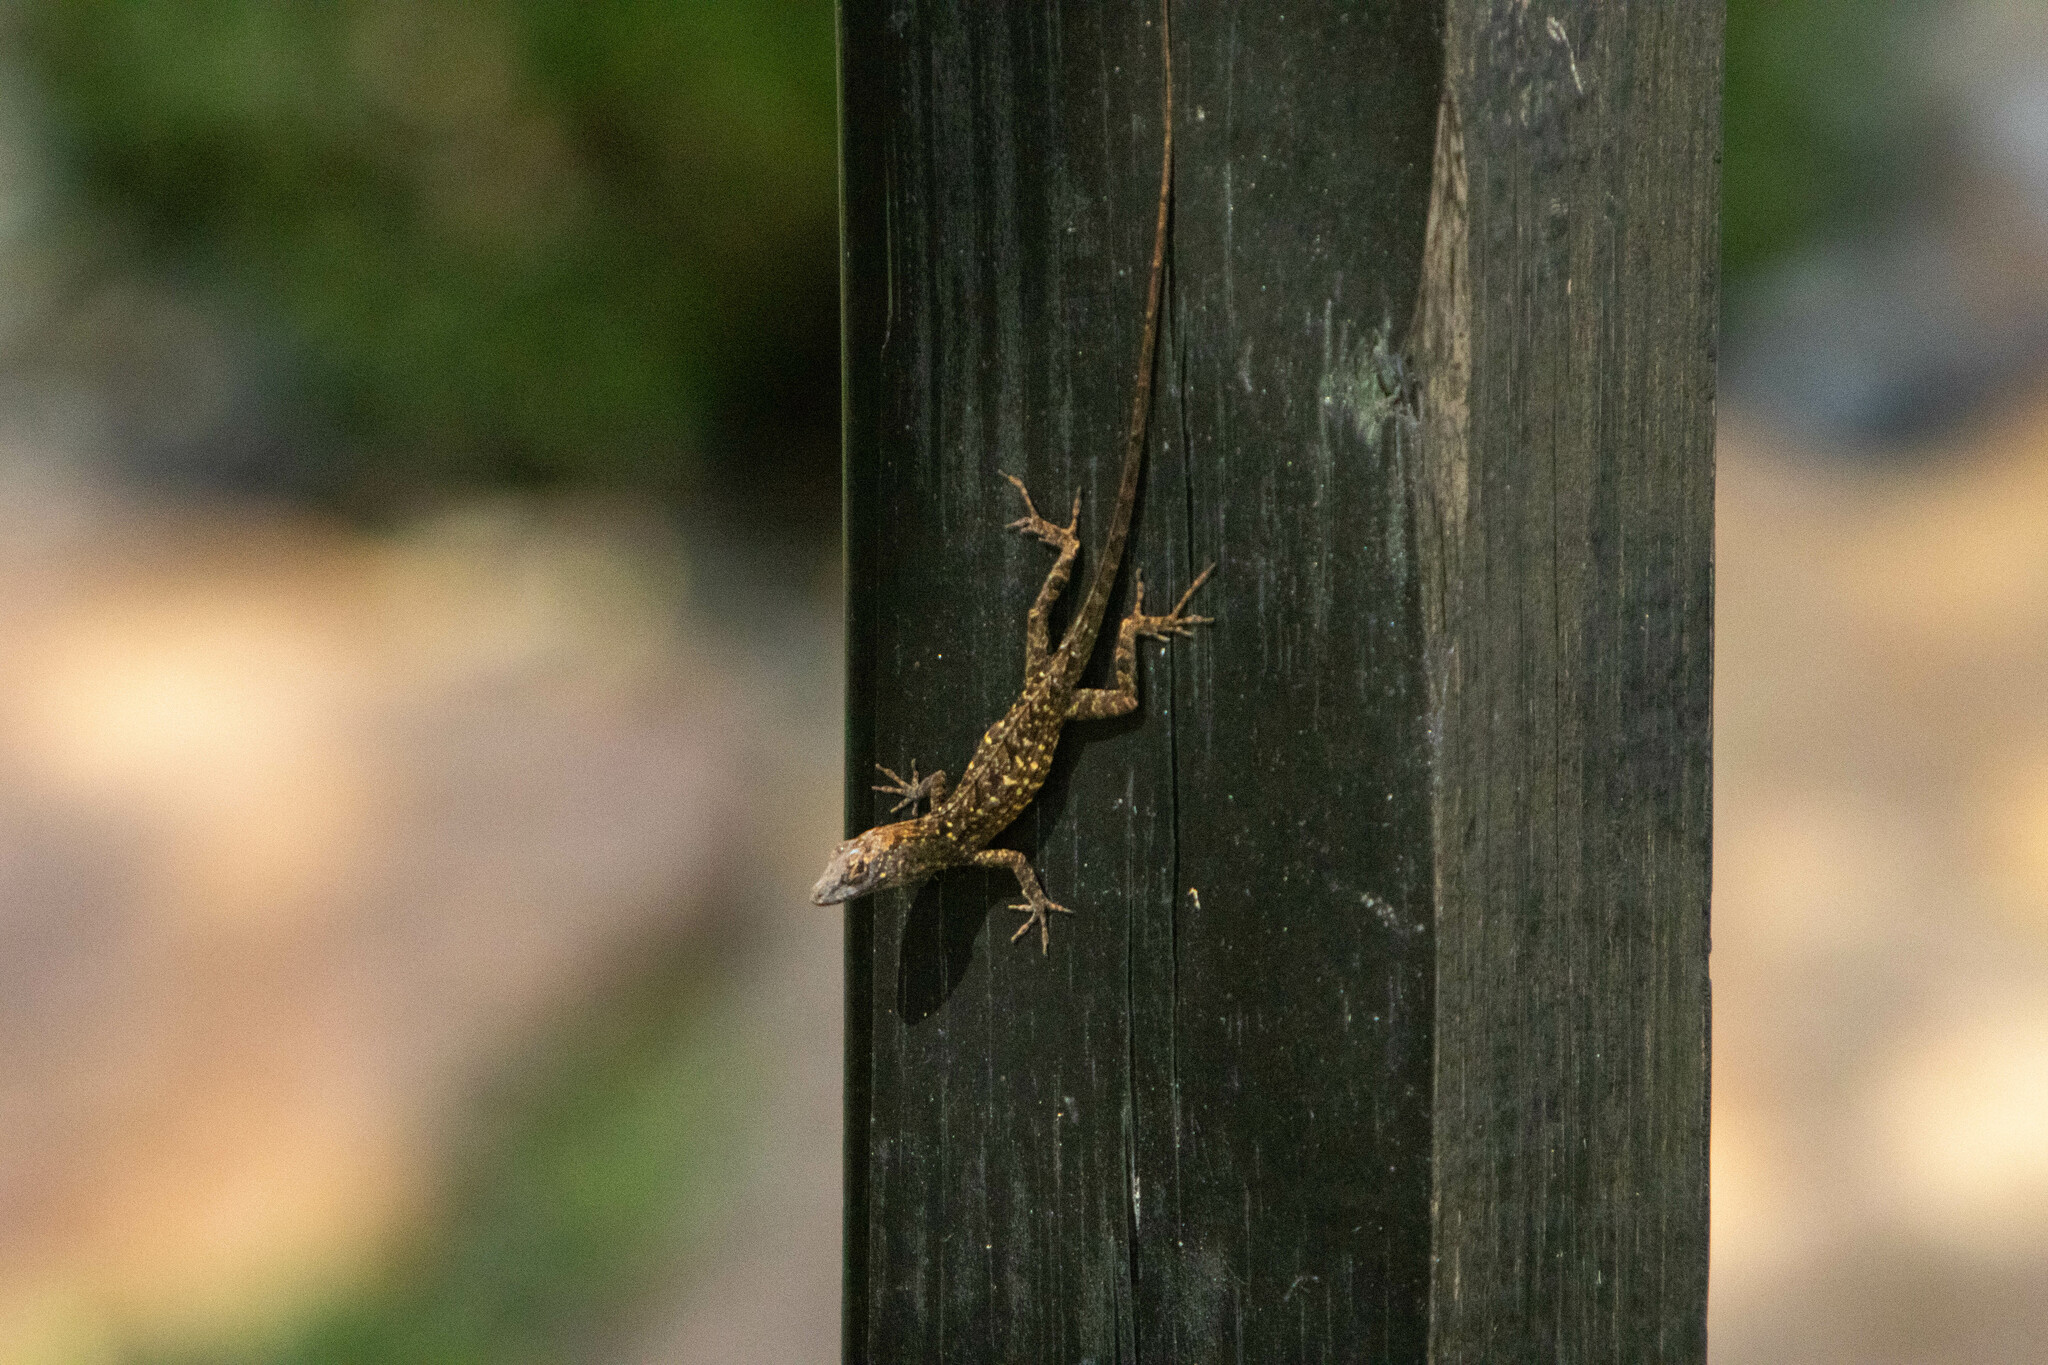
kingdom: Animalia
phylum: Chordata
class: Squamata
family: Dactyloidae
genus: Anolis
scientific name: Anolis sagrei
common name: Brown anole
